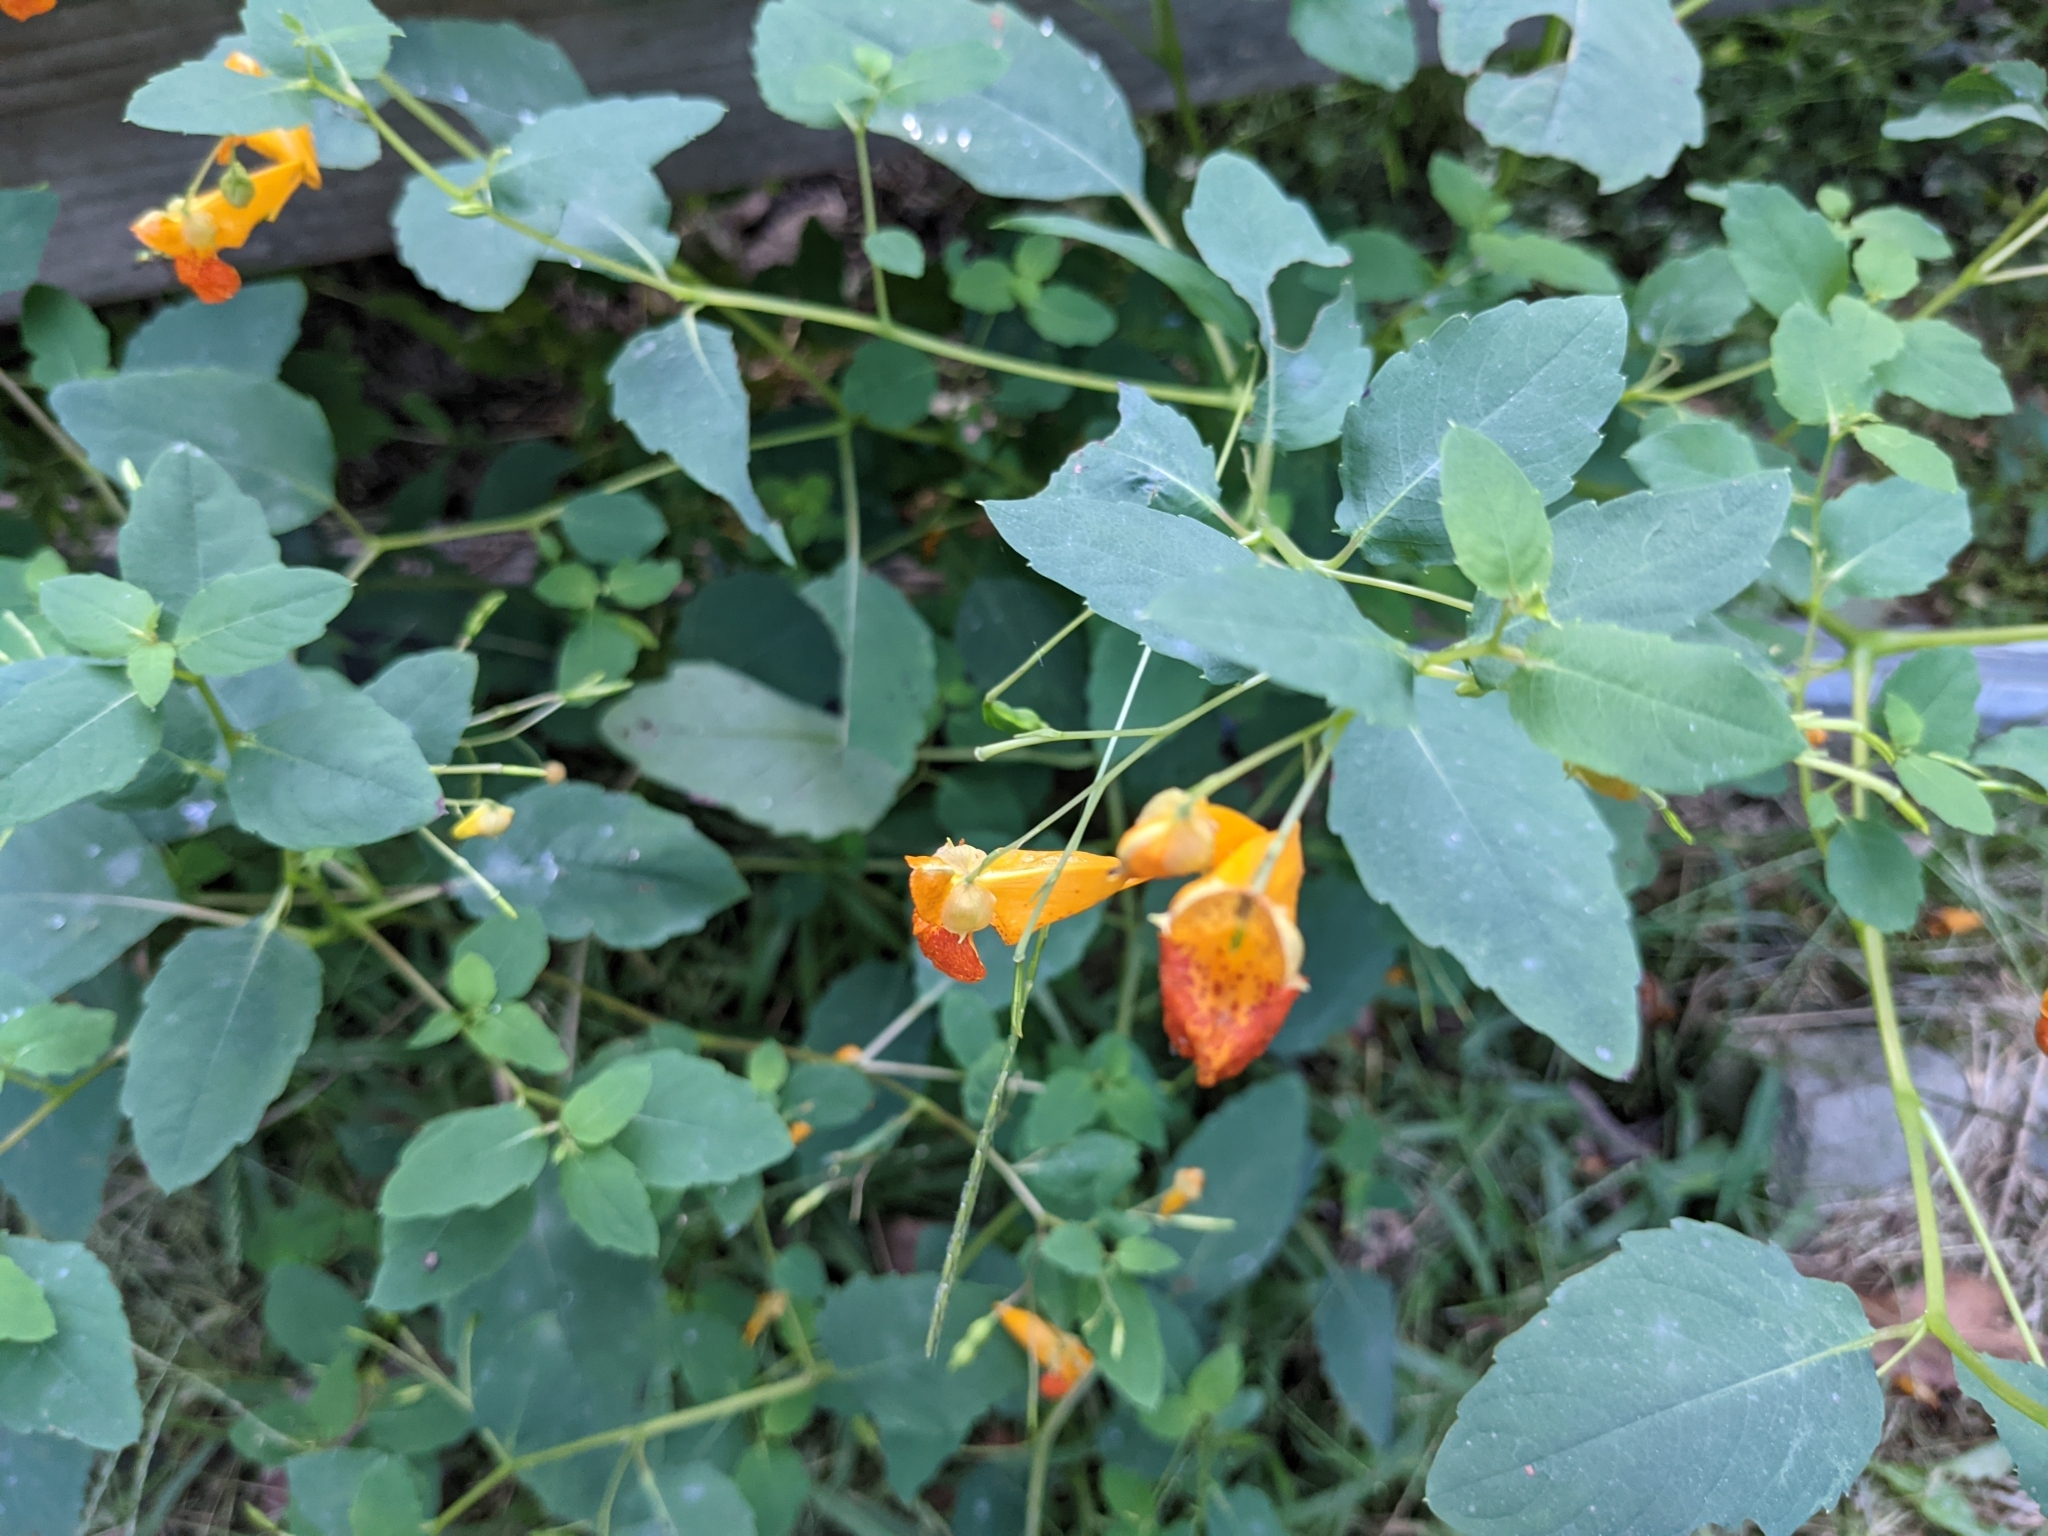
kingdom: Plantae
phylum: Tracheophyta
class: Magnoliopsida
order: Ericales
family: Balsaminaceae
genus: Impatiens
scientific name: Impatiens capensis
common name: Orange balsam
